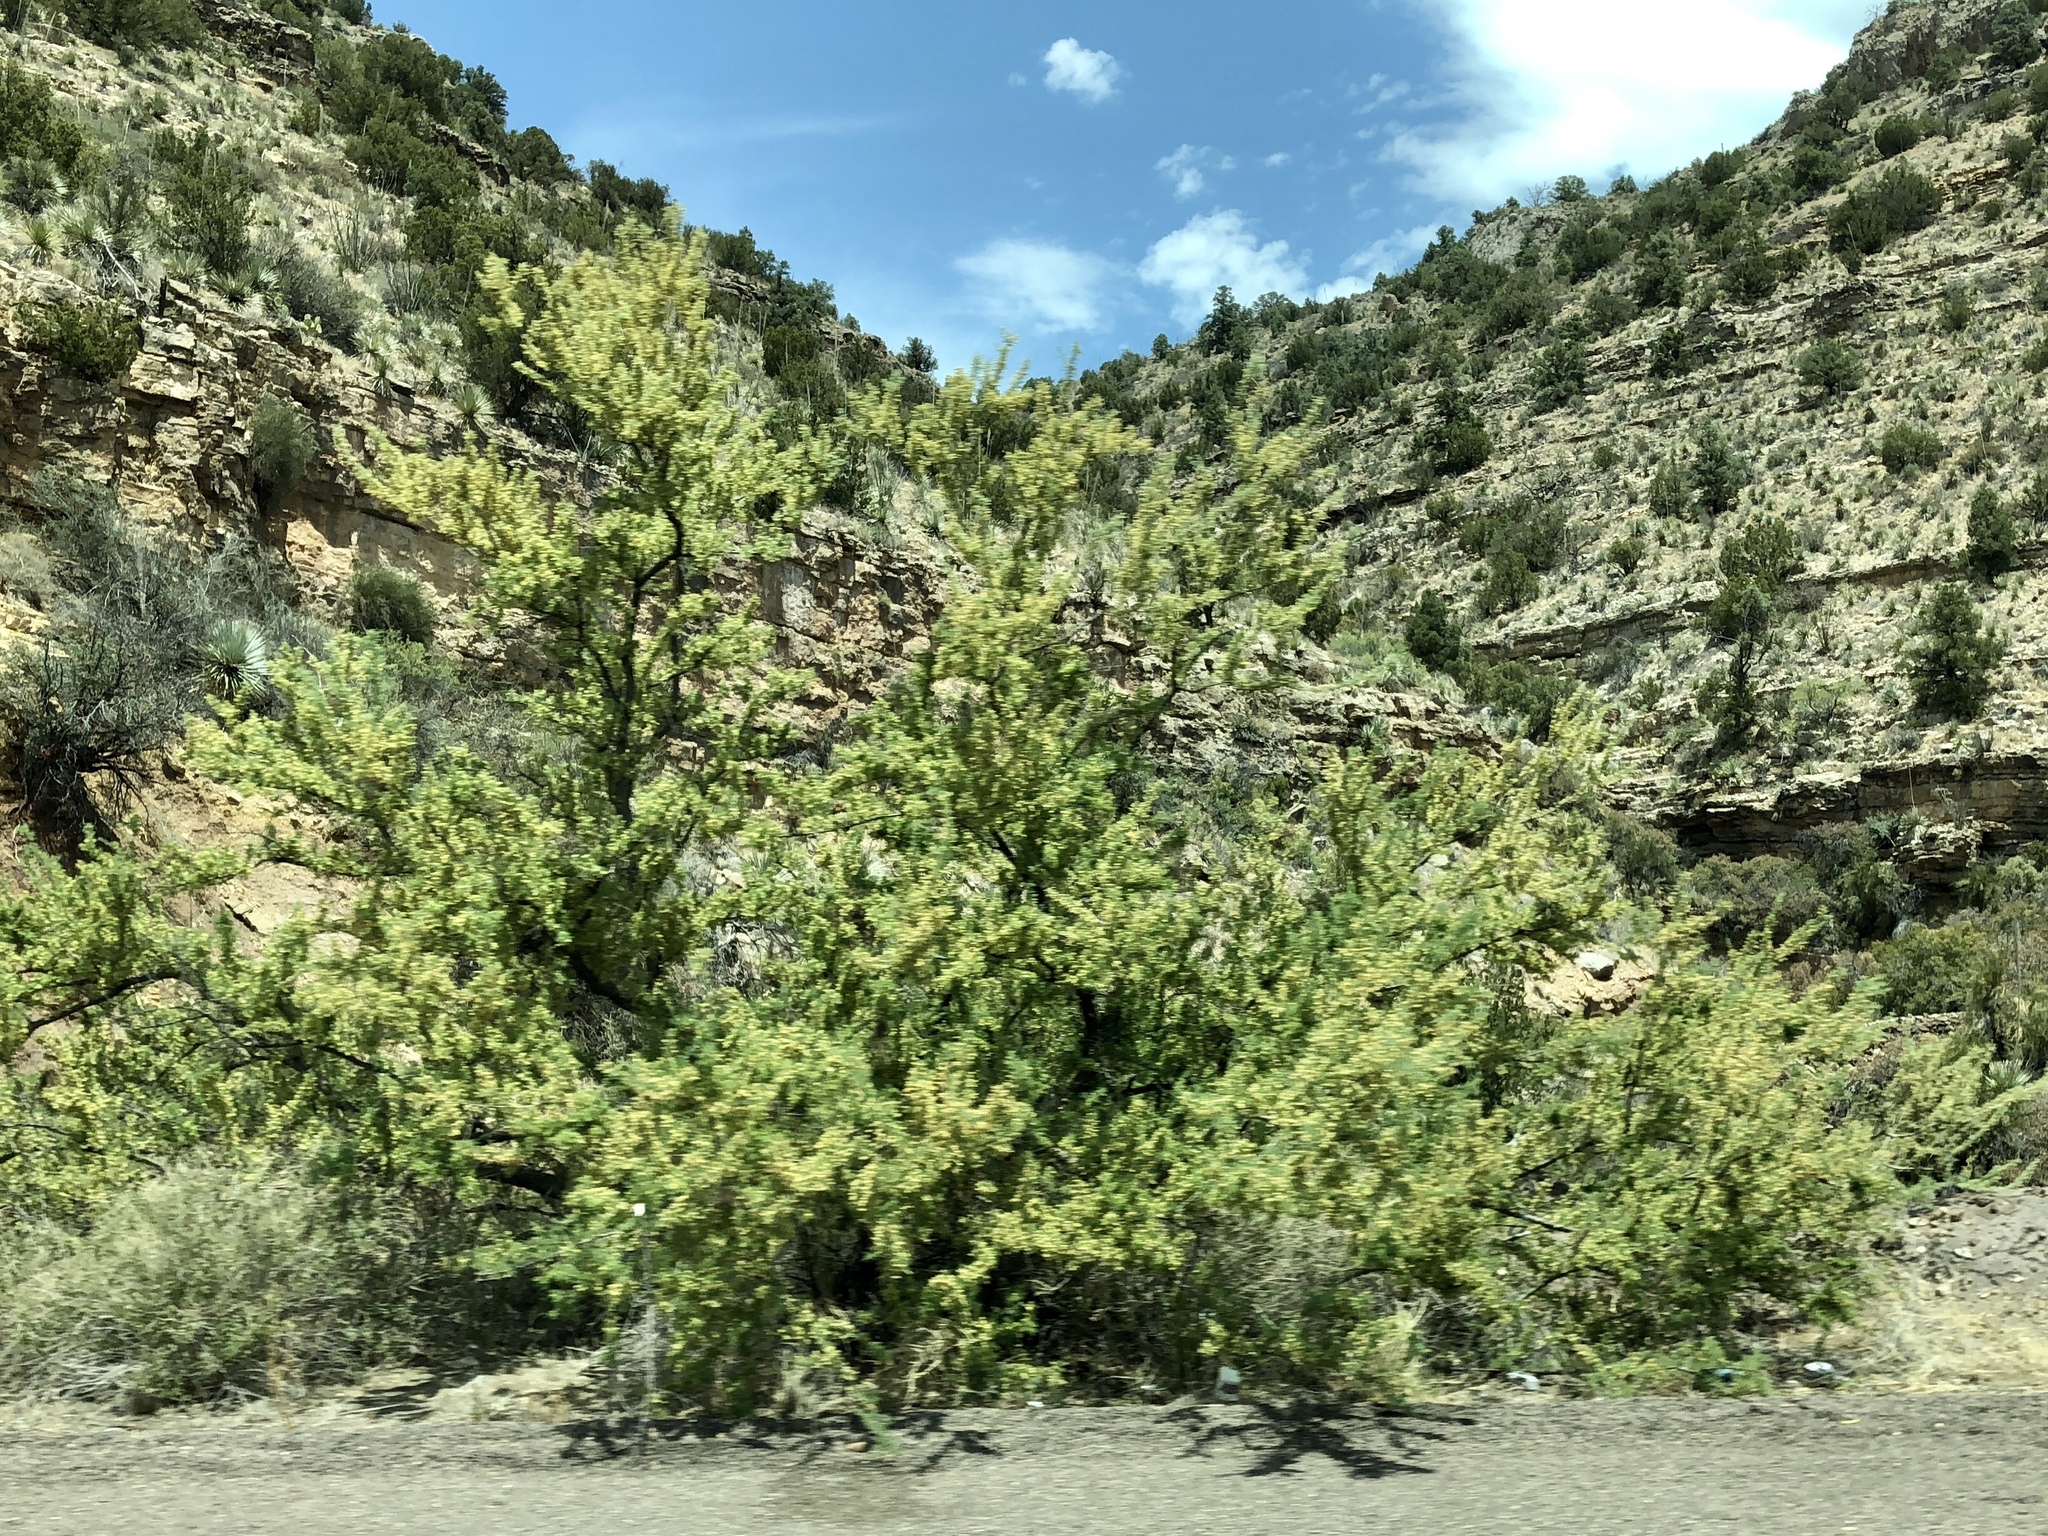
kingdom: Plantae
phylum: Tracheophyta
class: Magnoliopsida
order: Proteales
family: Platanaceae
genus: Platanus
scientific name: Platanus wrightii
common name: Arizona sycamore
